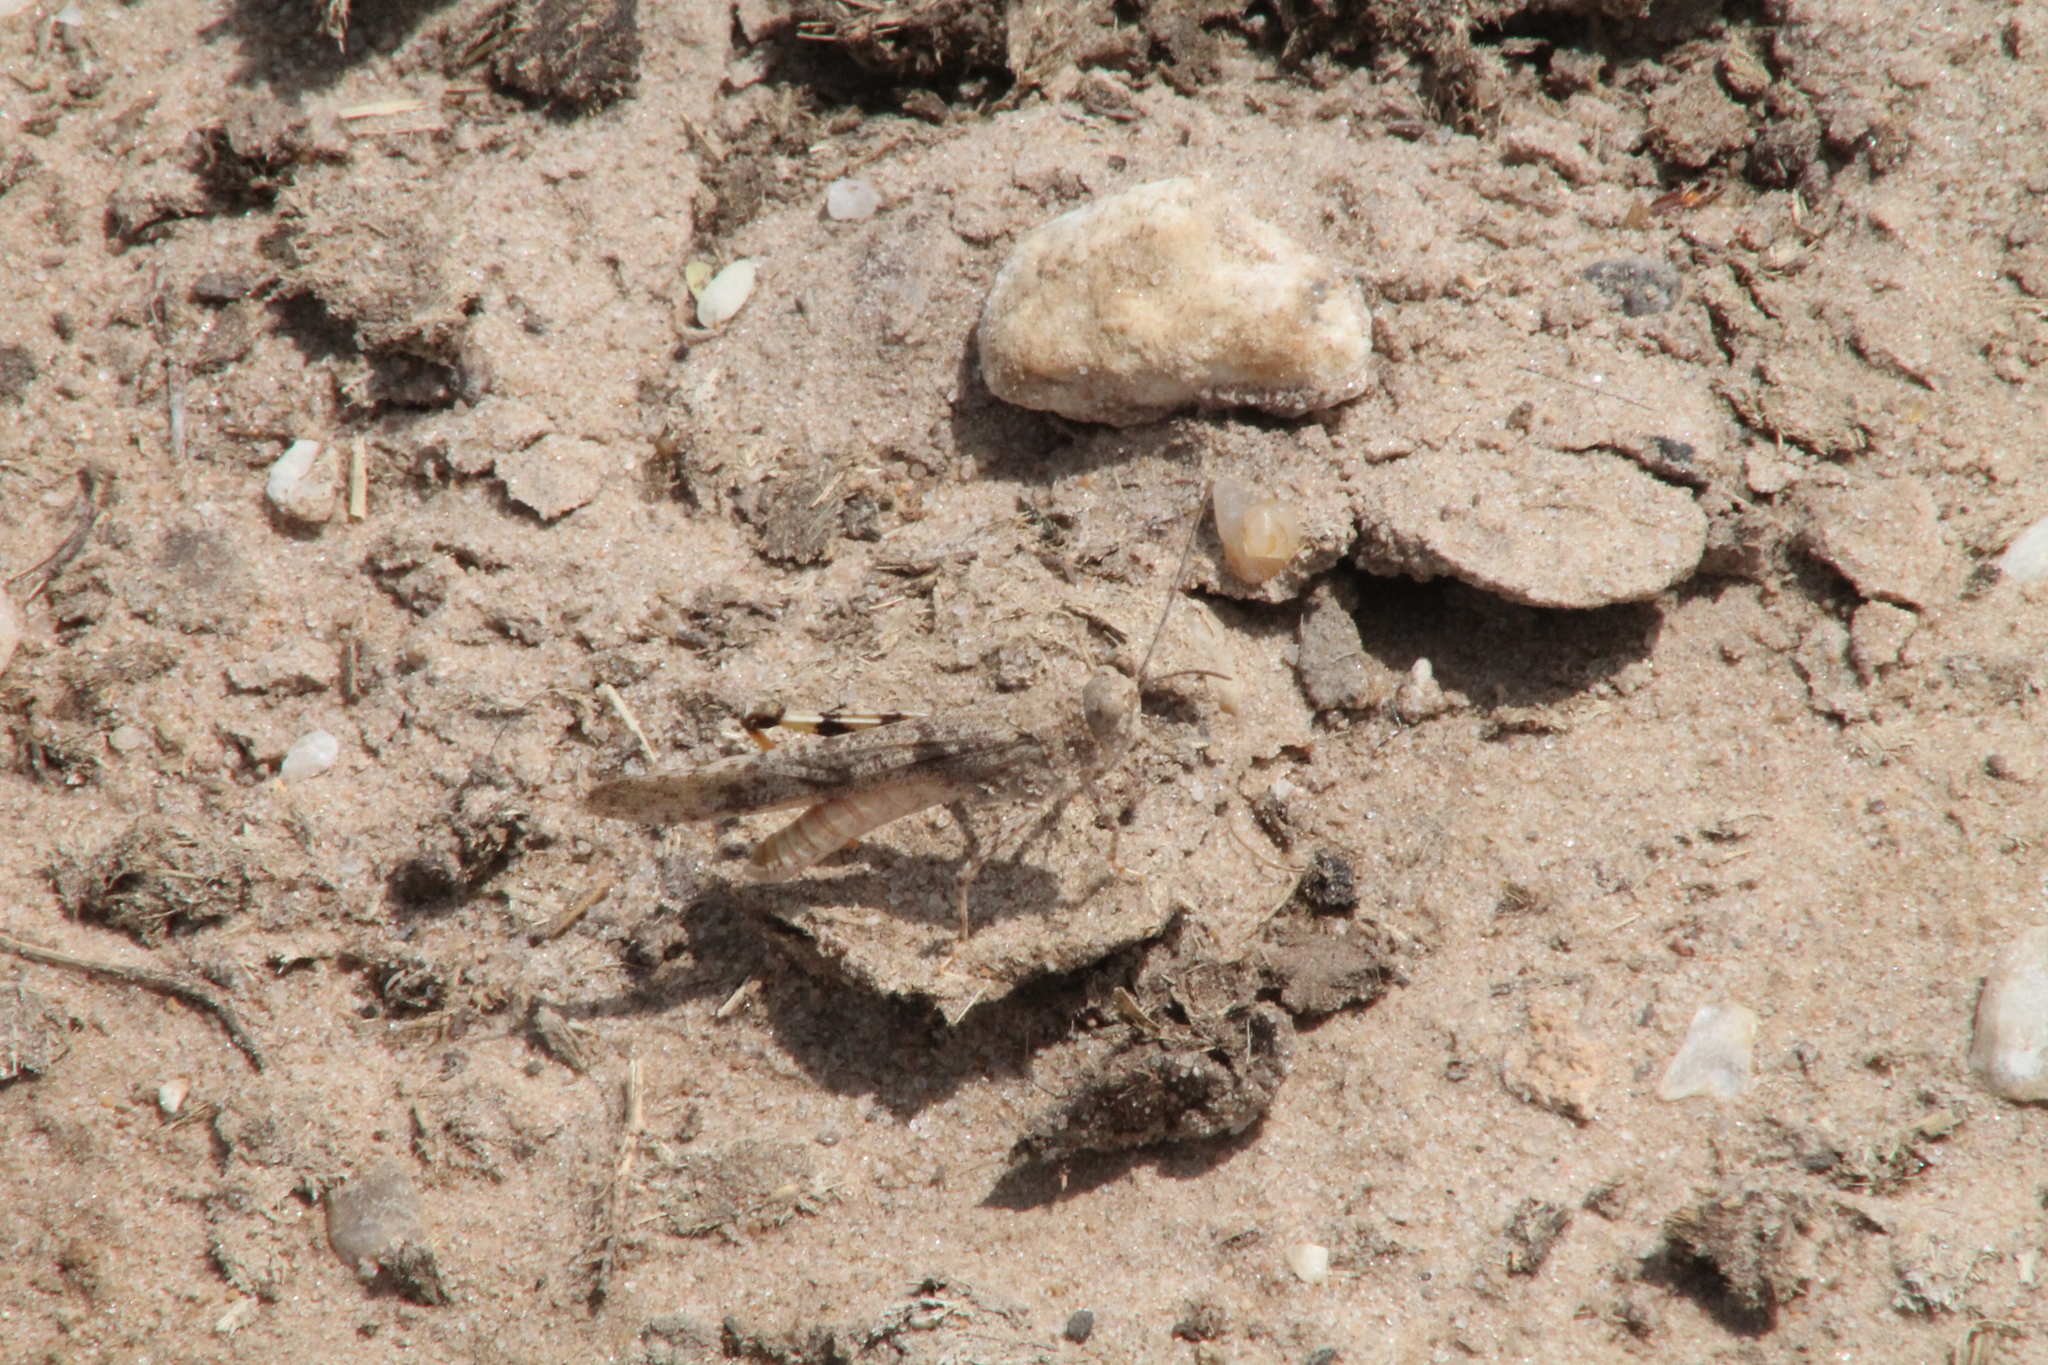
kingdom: Animalia
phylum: Arthropoda
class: Insecta
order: Orthoptera
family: Acrididae
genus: Trimerotropis
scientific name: Trimerotropis maritima
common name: Seaside locust
